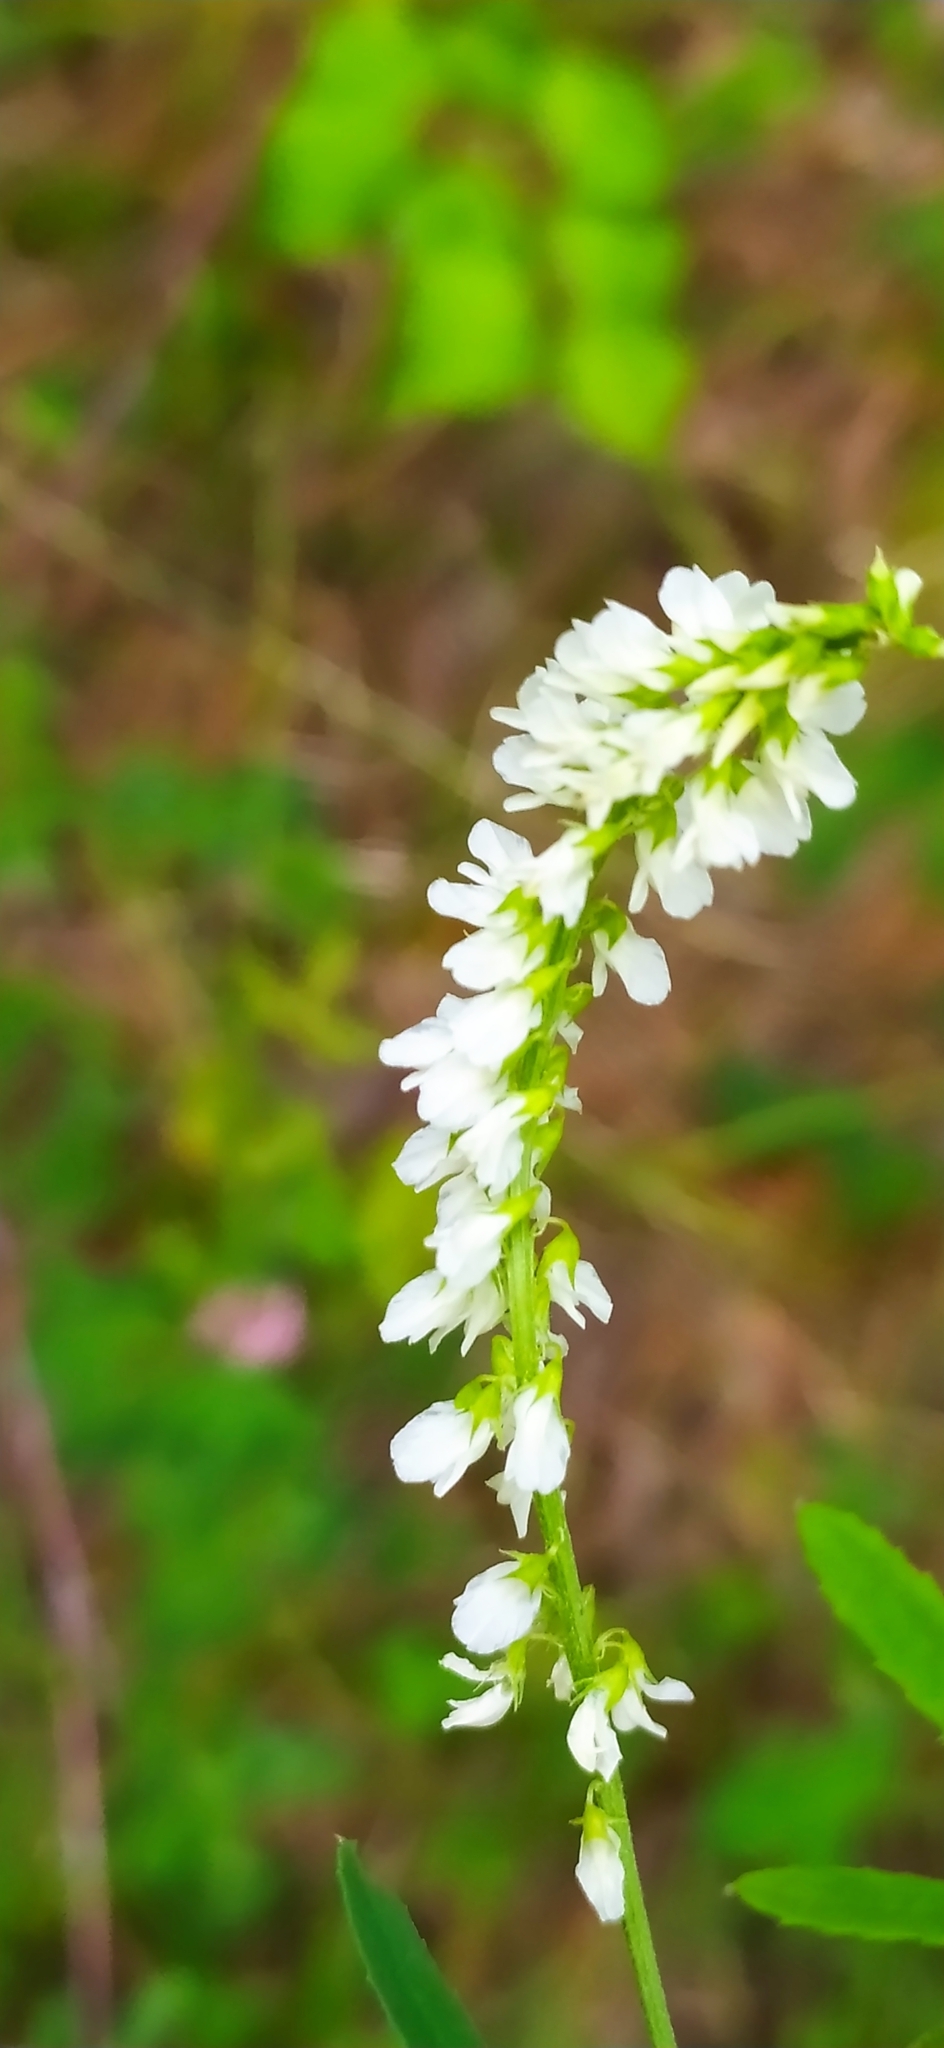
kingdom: Plantae
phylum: Tracheophyta
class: Magnoliopsida
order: Fabales
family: Fabaceae
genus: Melilotus
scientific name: Melilotus albus
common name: White melilot
